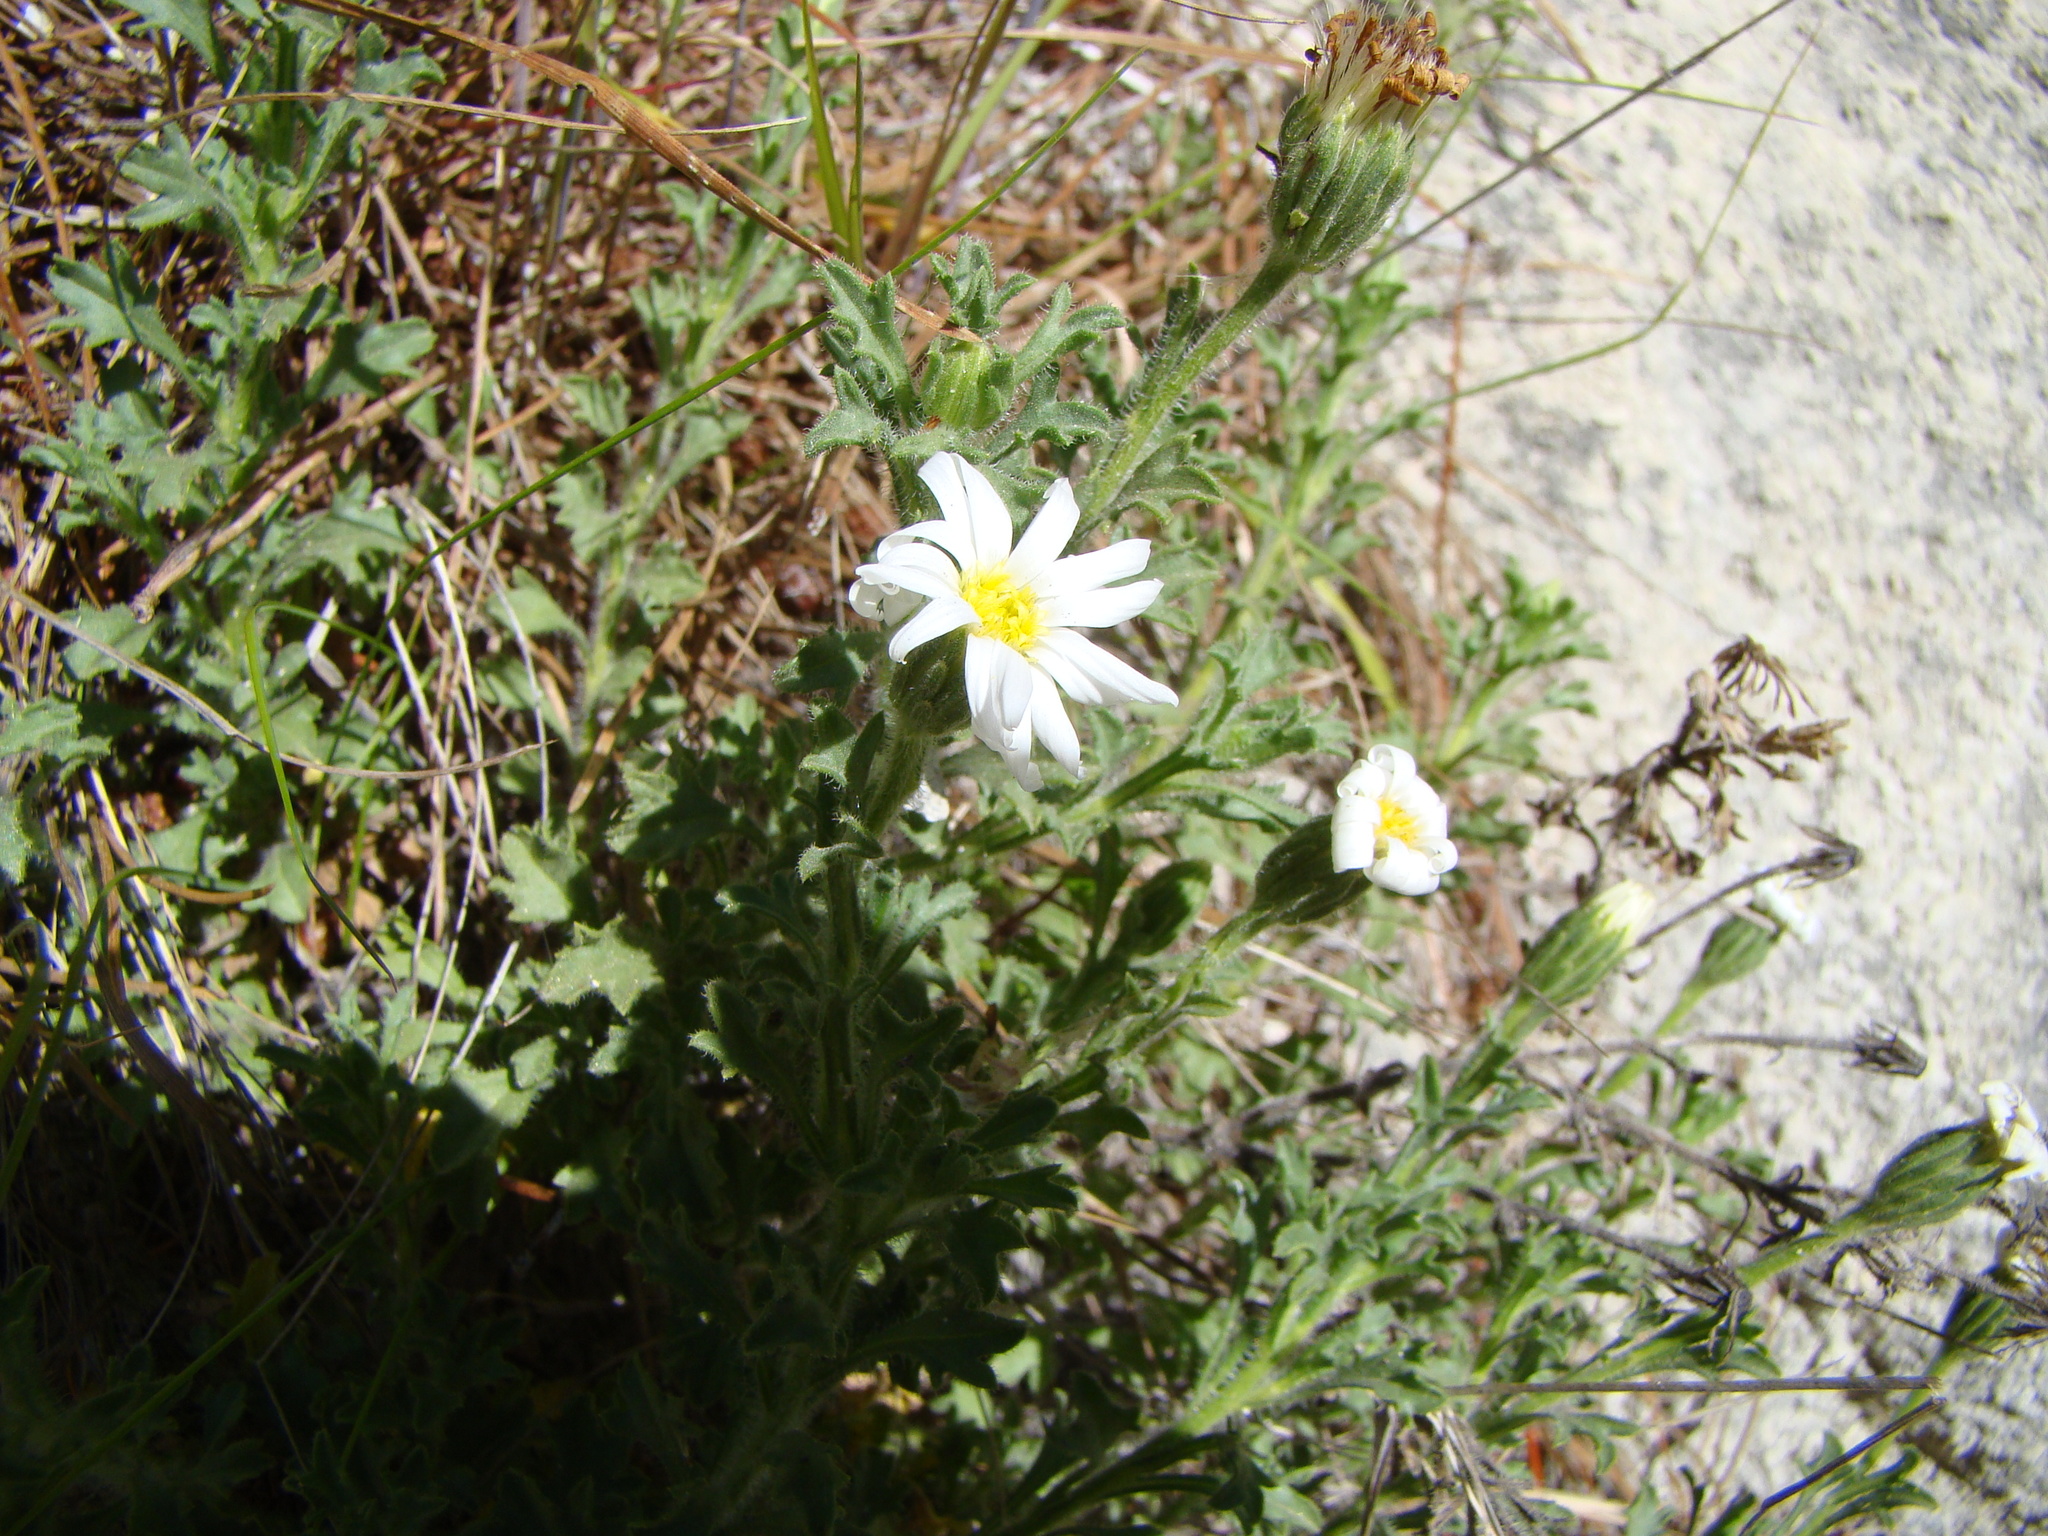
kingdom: Plantae
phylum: Tracheophyta
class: Magnoliopsida
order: Asterales
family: Asteraceae
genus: Vittadinia
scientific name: Vittadinia australis
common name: White fuzzweed
